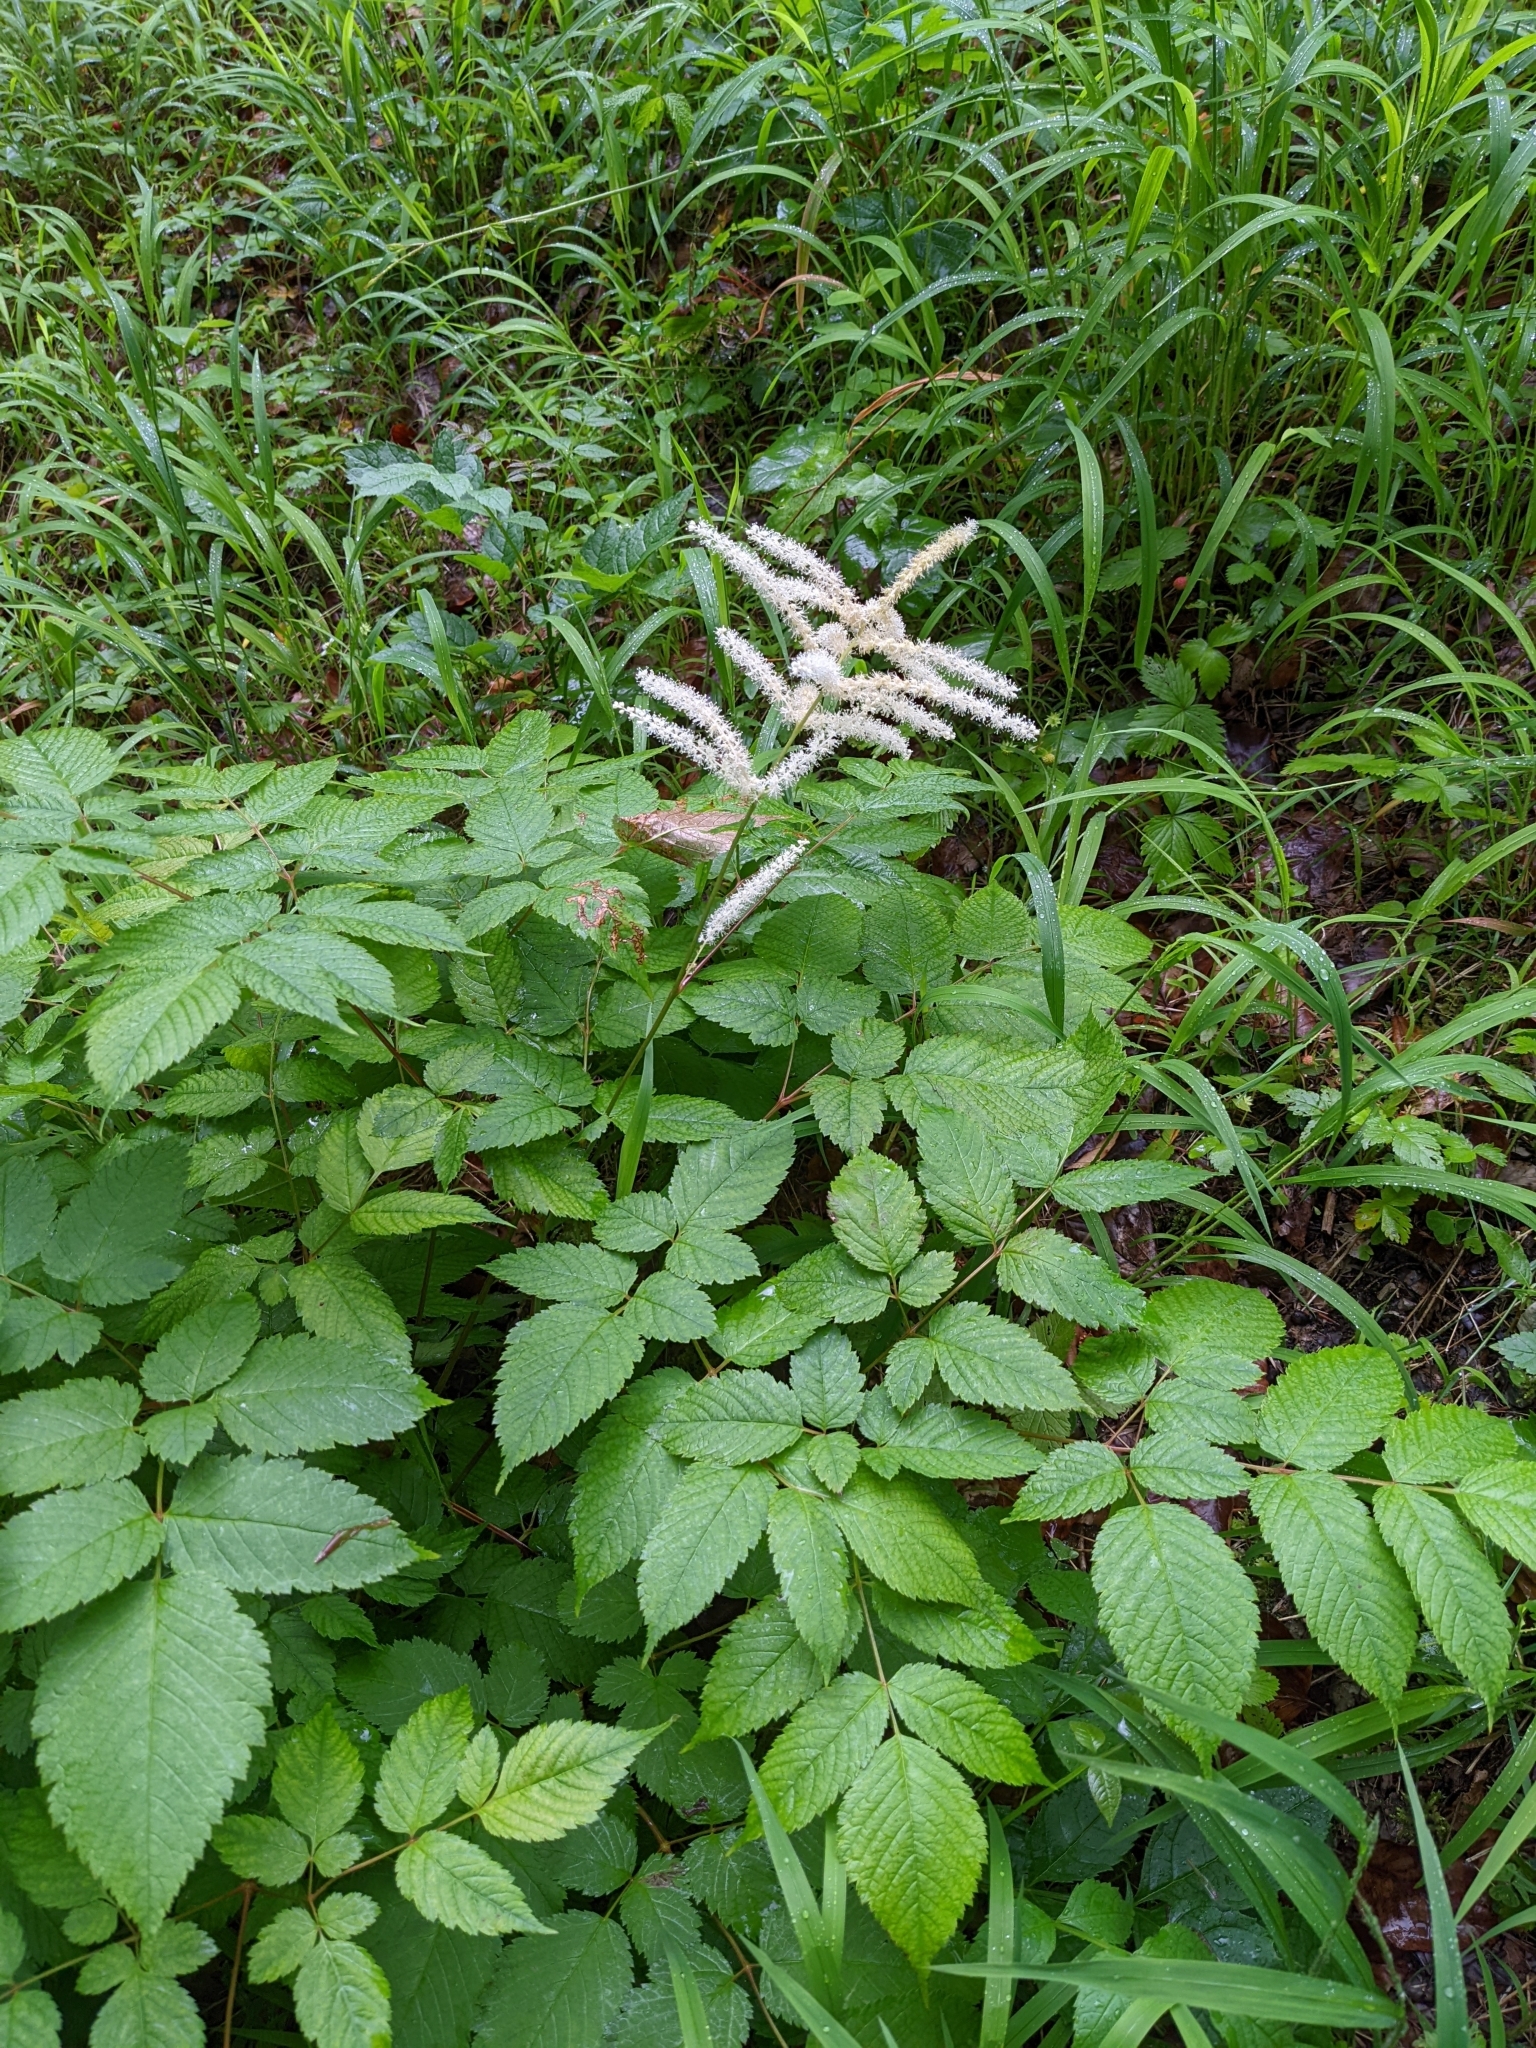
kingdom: Plantae
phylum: Tracheophyta
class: Magnoliopsida
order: Rosales
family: Rosaceae
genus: Aruncus
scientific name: Aruncus dioicus
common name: Buck's-beard
